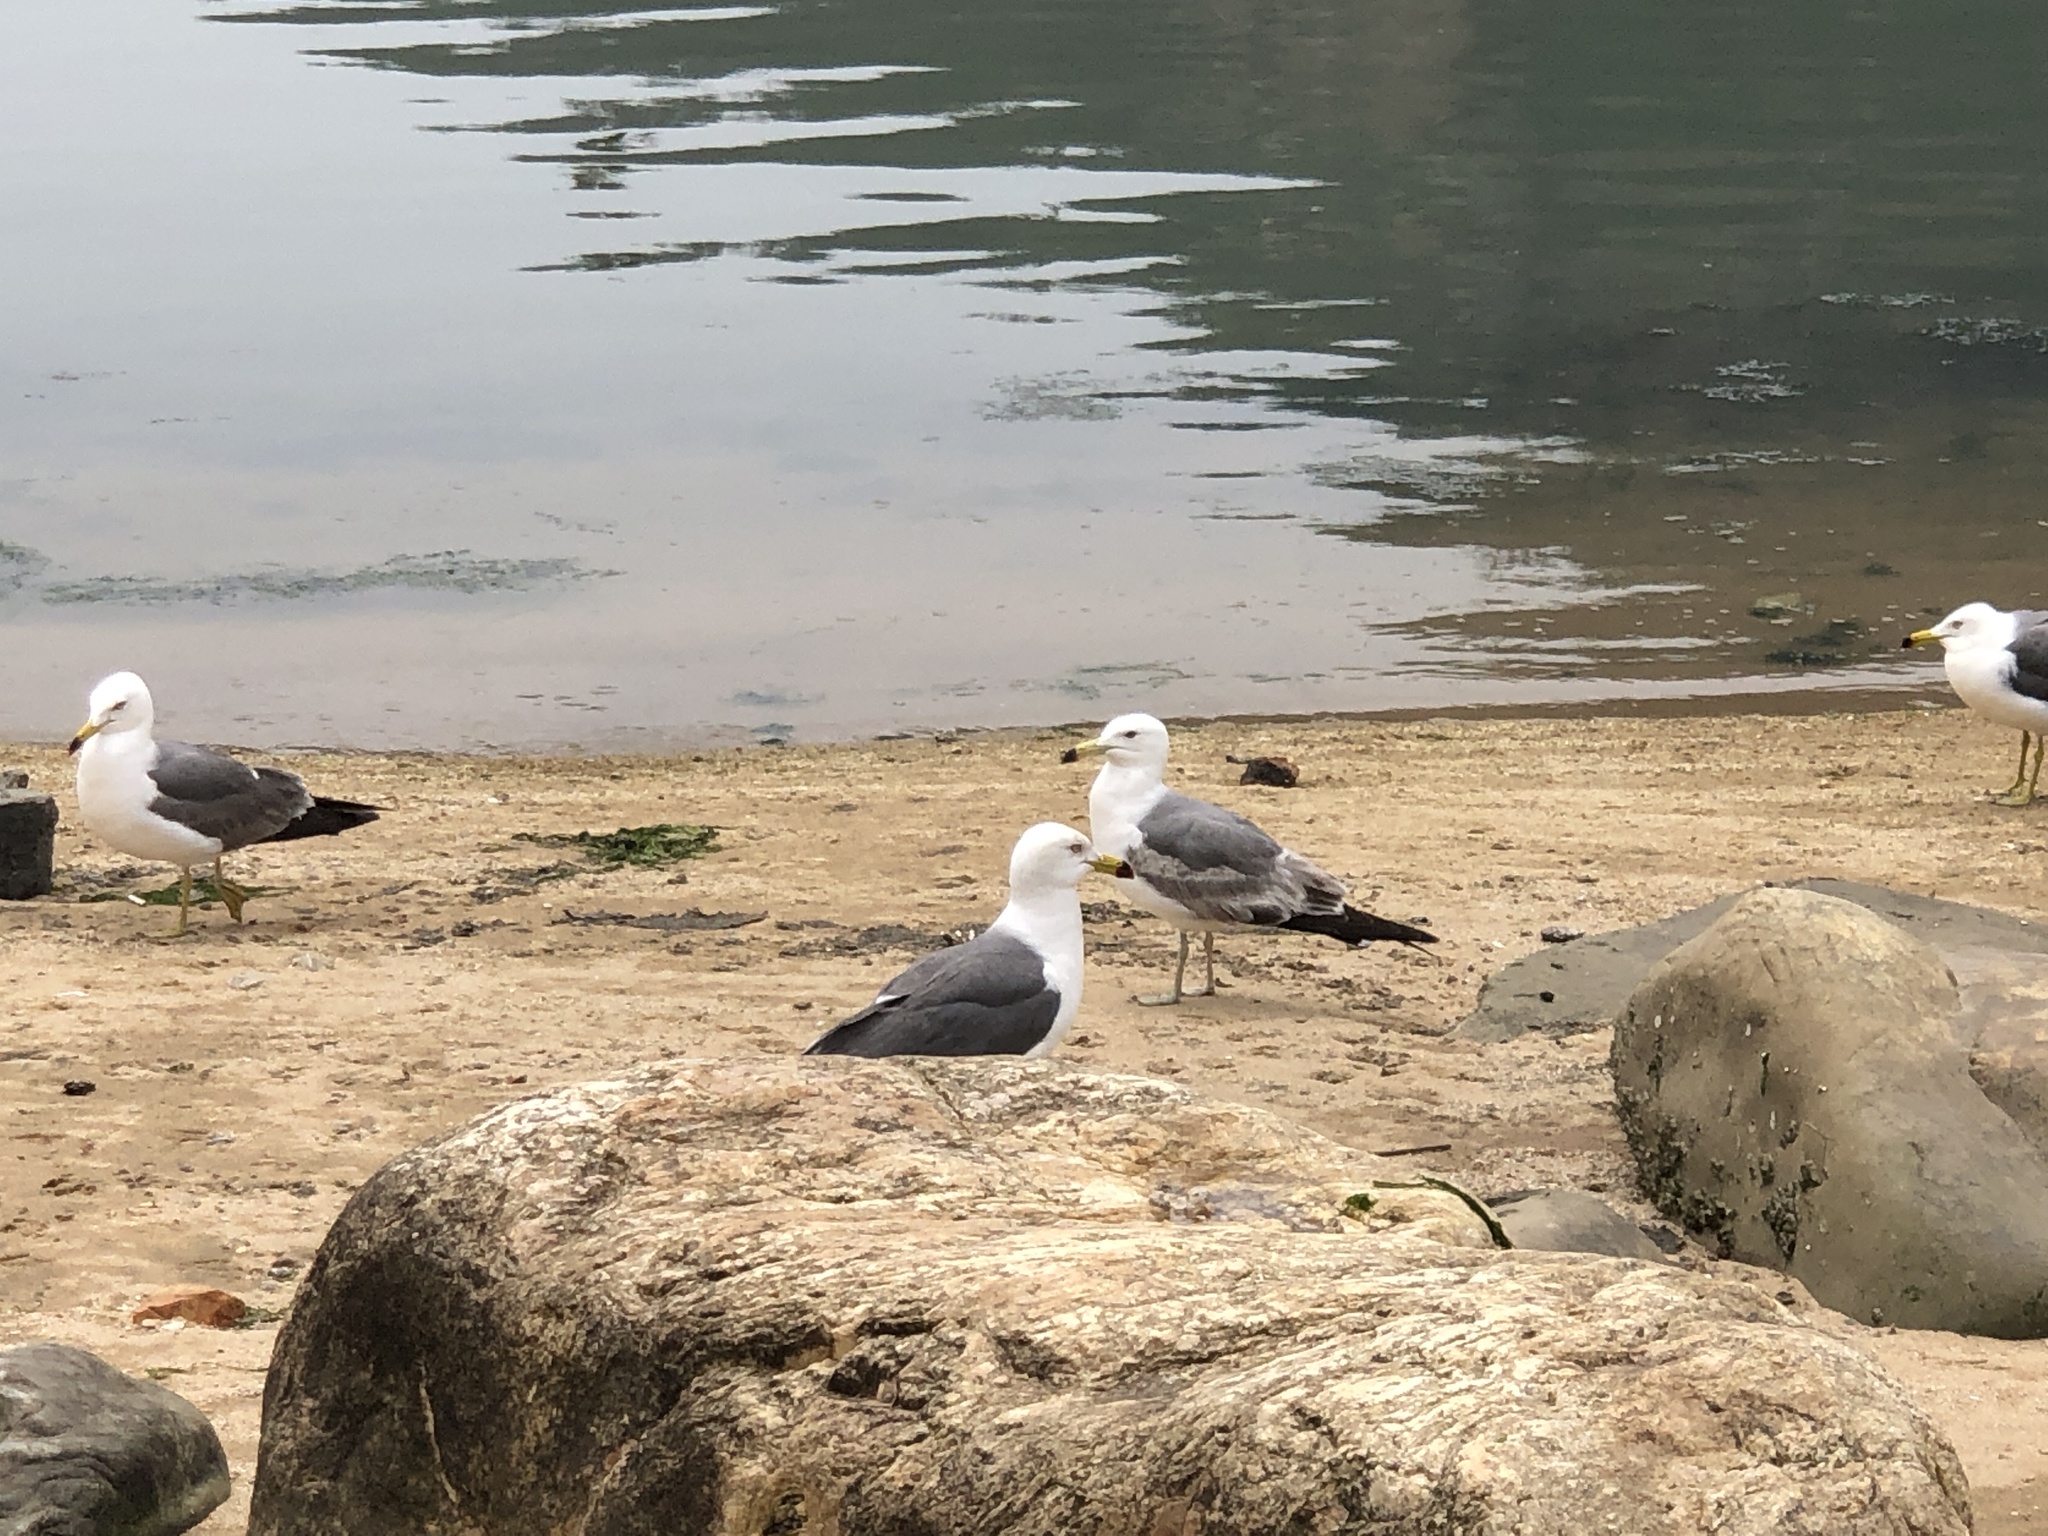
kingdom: Animalia
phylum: Chordata
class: Aves
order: Charadriiformes
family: Laridae
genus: Larus
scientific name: Larus crassirostris
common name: Black-tailed gull
